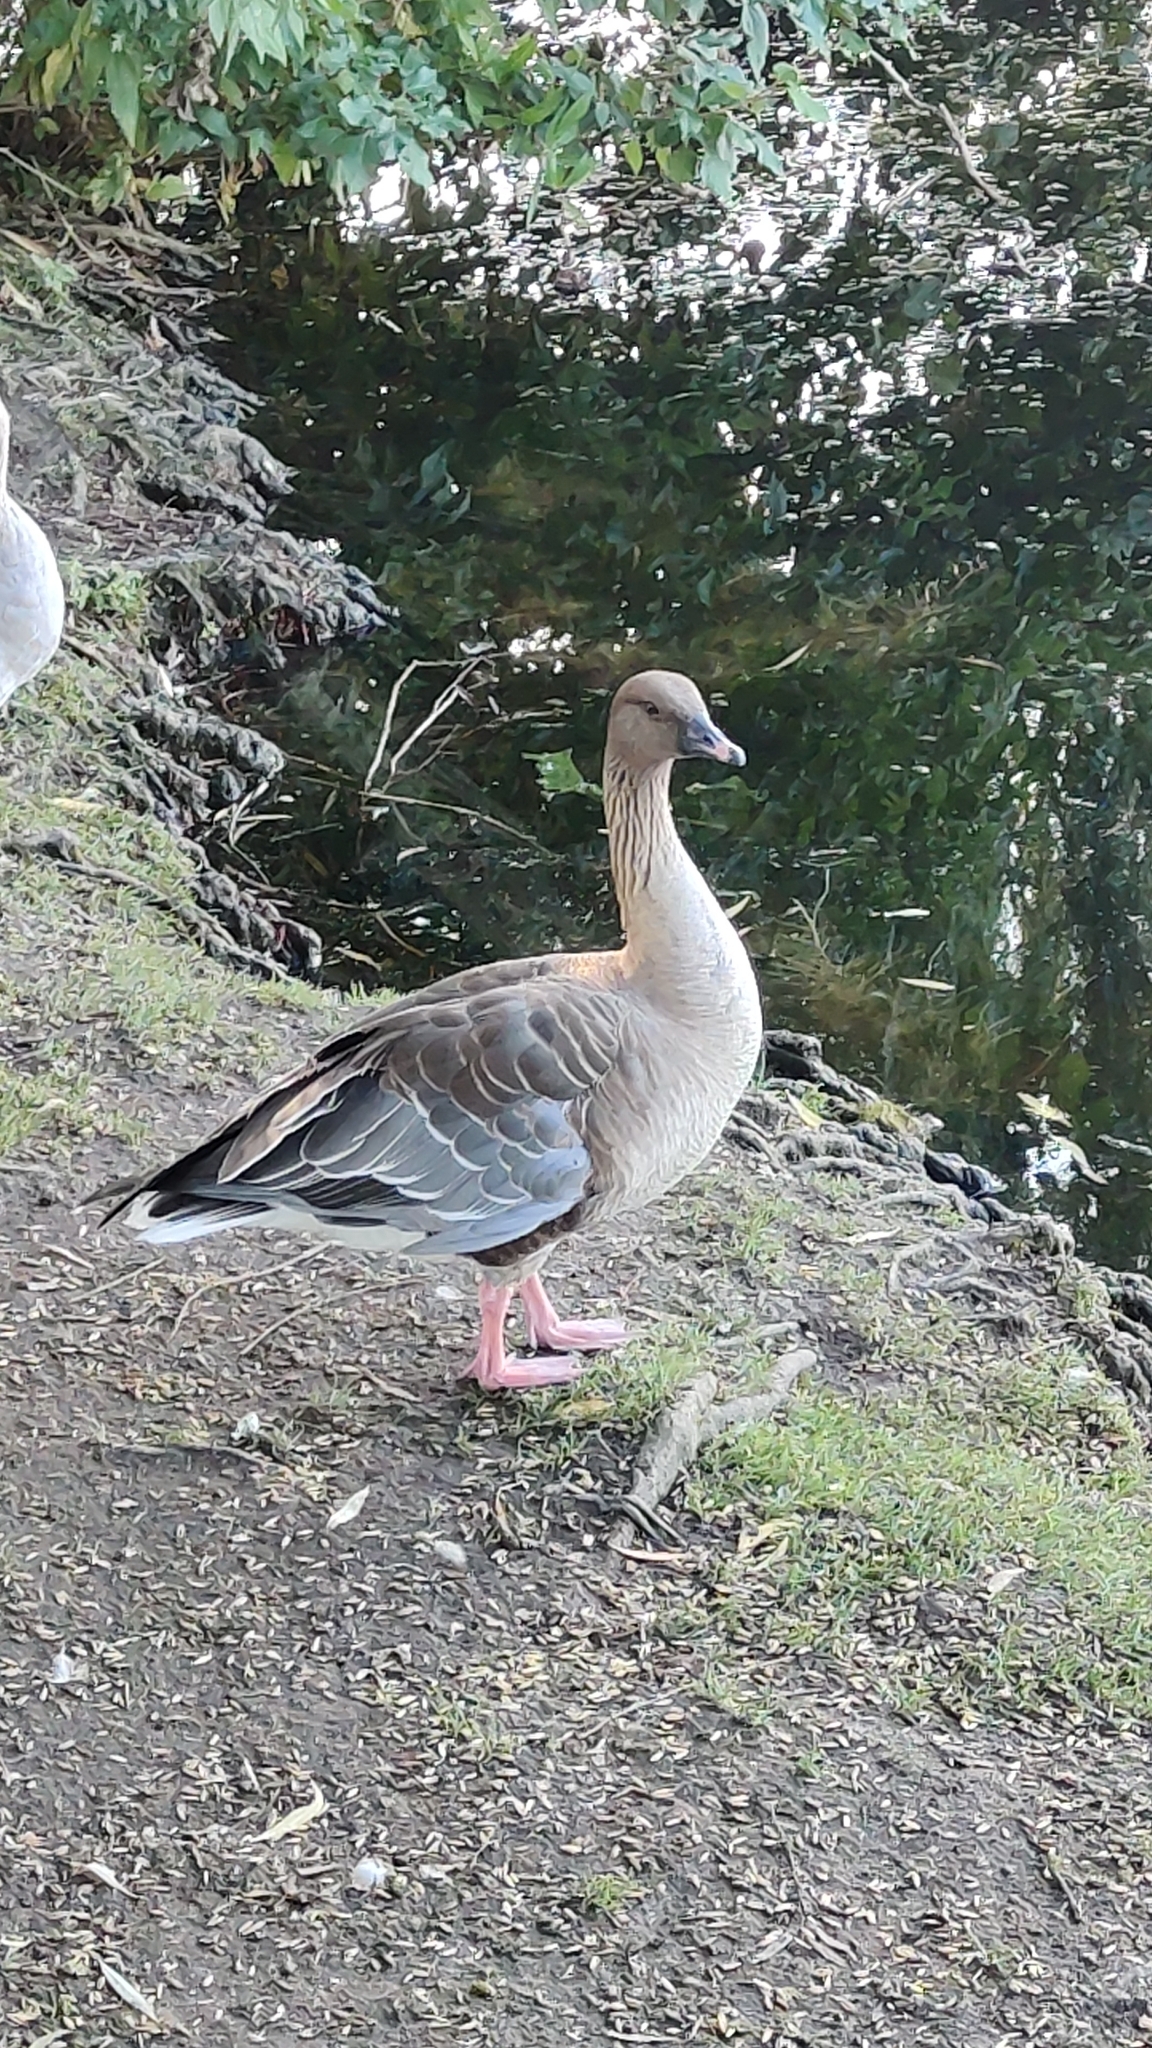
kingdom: Animalia
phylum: Chordata
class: Aves
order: Anseriformes
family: Anatidae
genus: Anser
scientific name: Anser brachyrhynchus
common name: Pink-footed goose
